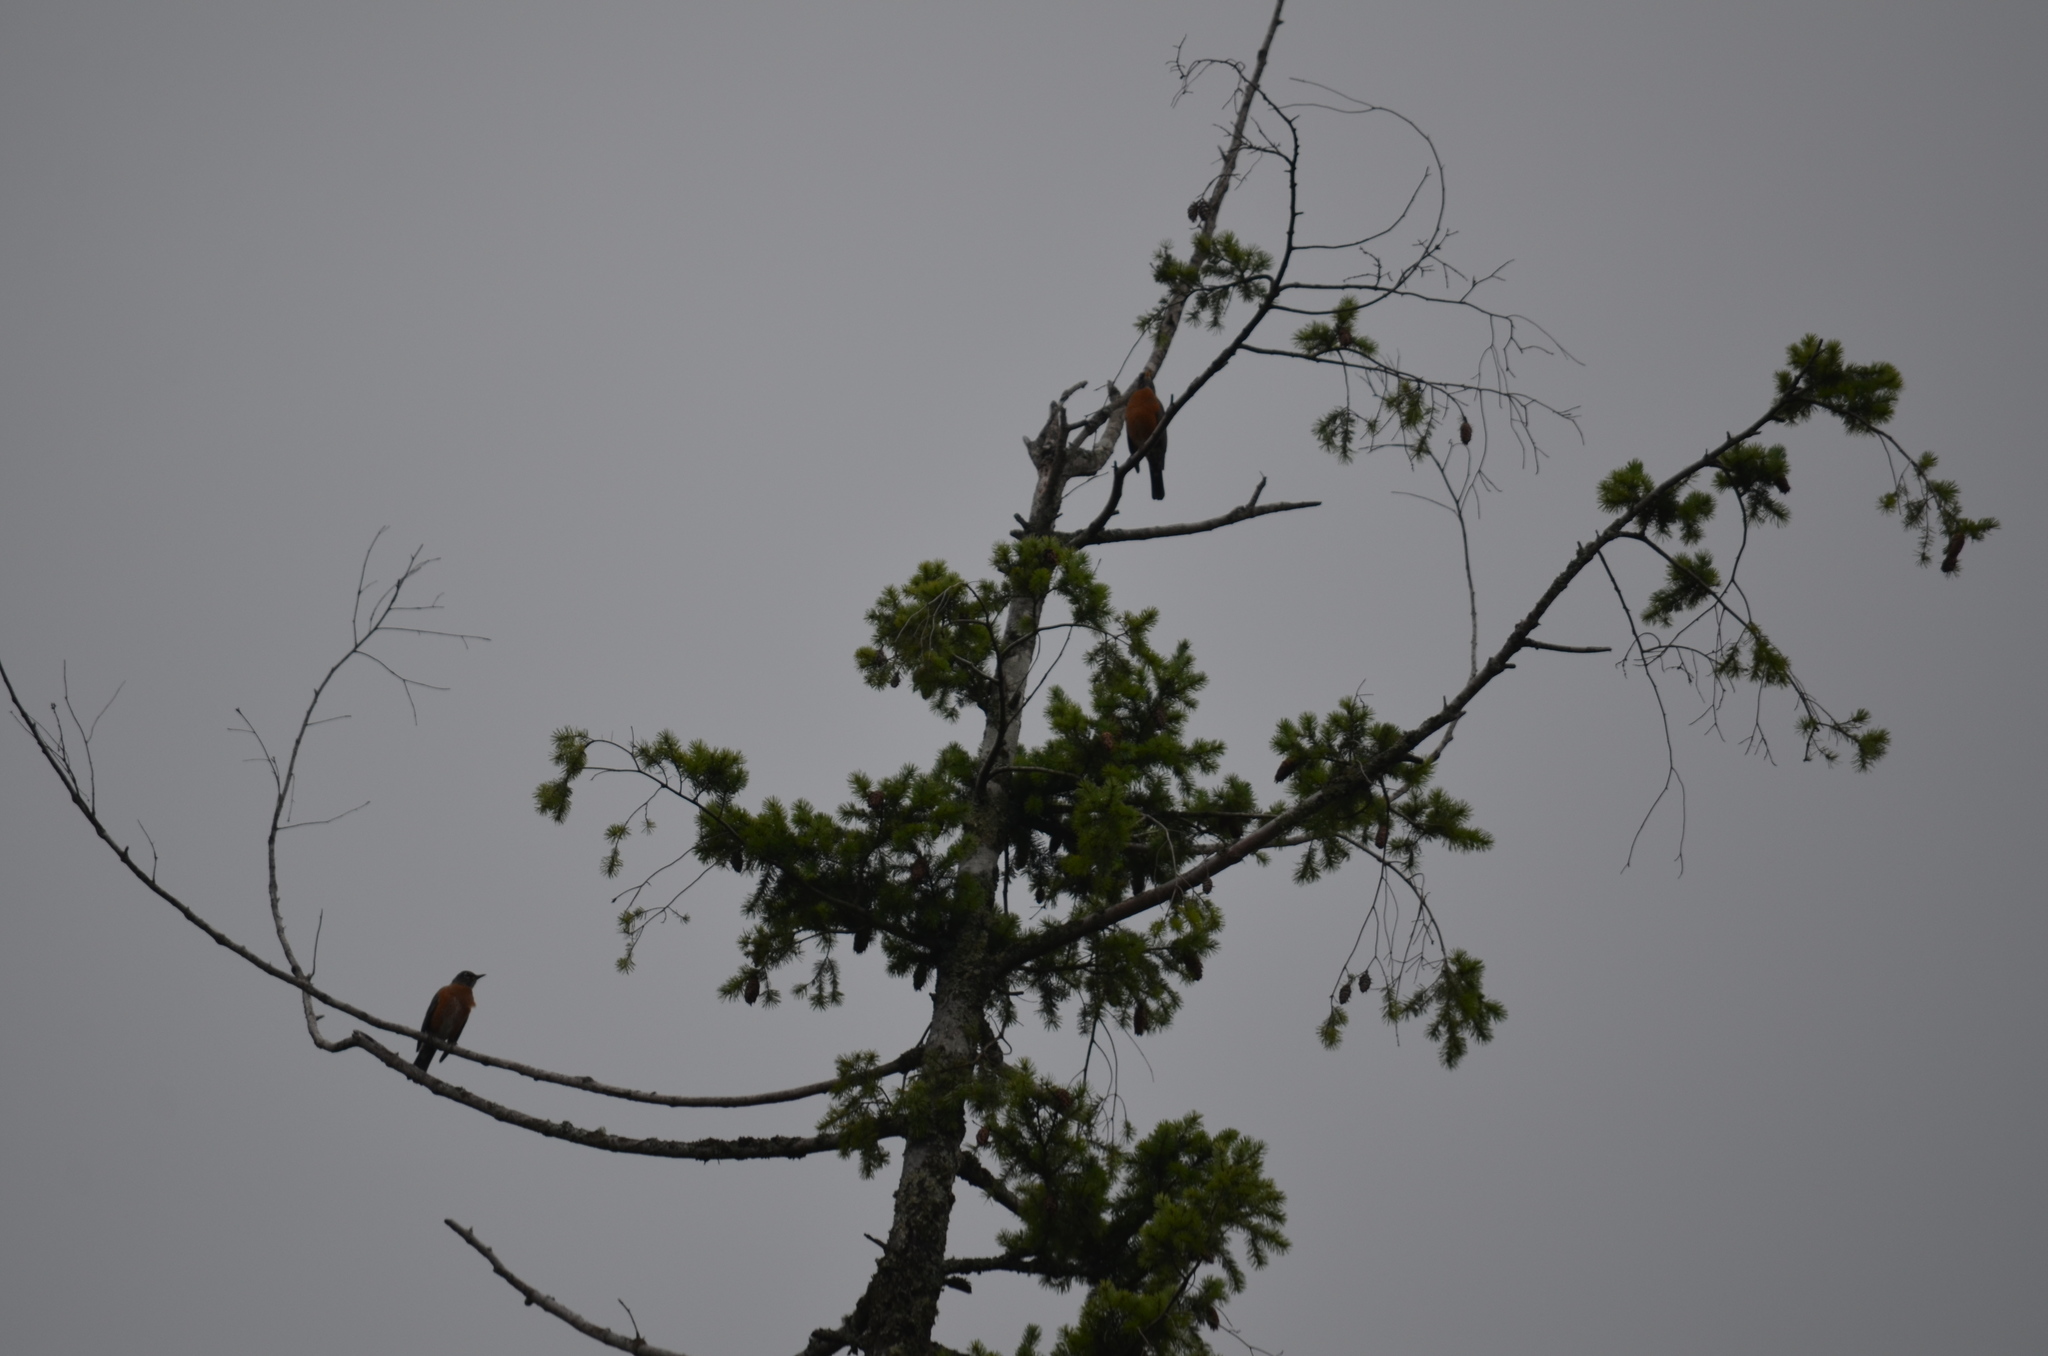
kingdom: Animalia
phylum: Chordata
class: Aves
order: Passeriformes
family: Turdidae
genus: Turdus
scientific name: Turdus migratorius
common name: American robin
